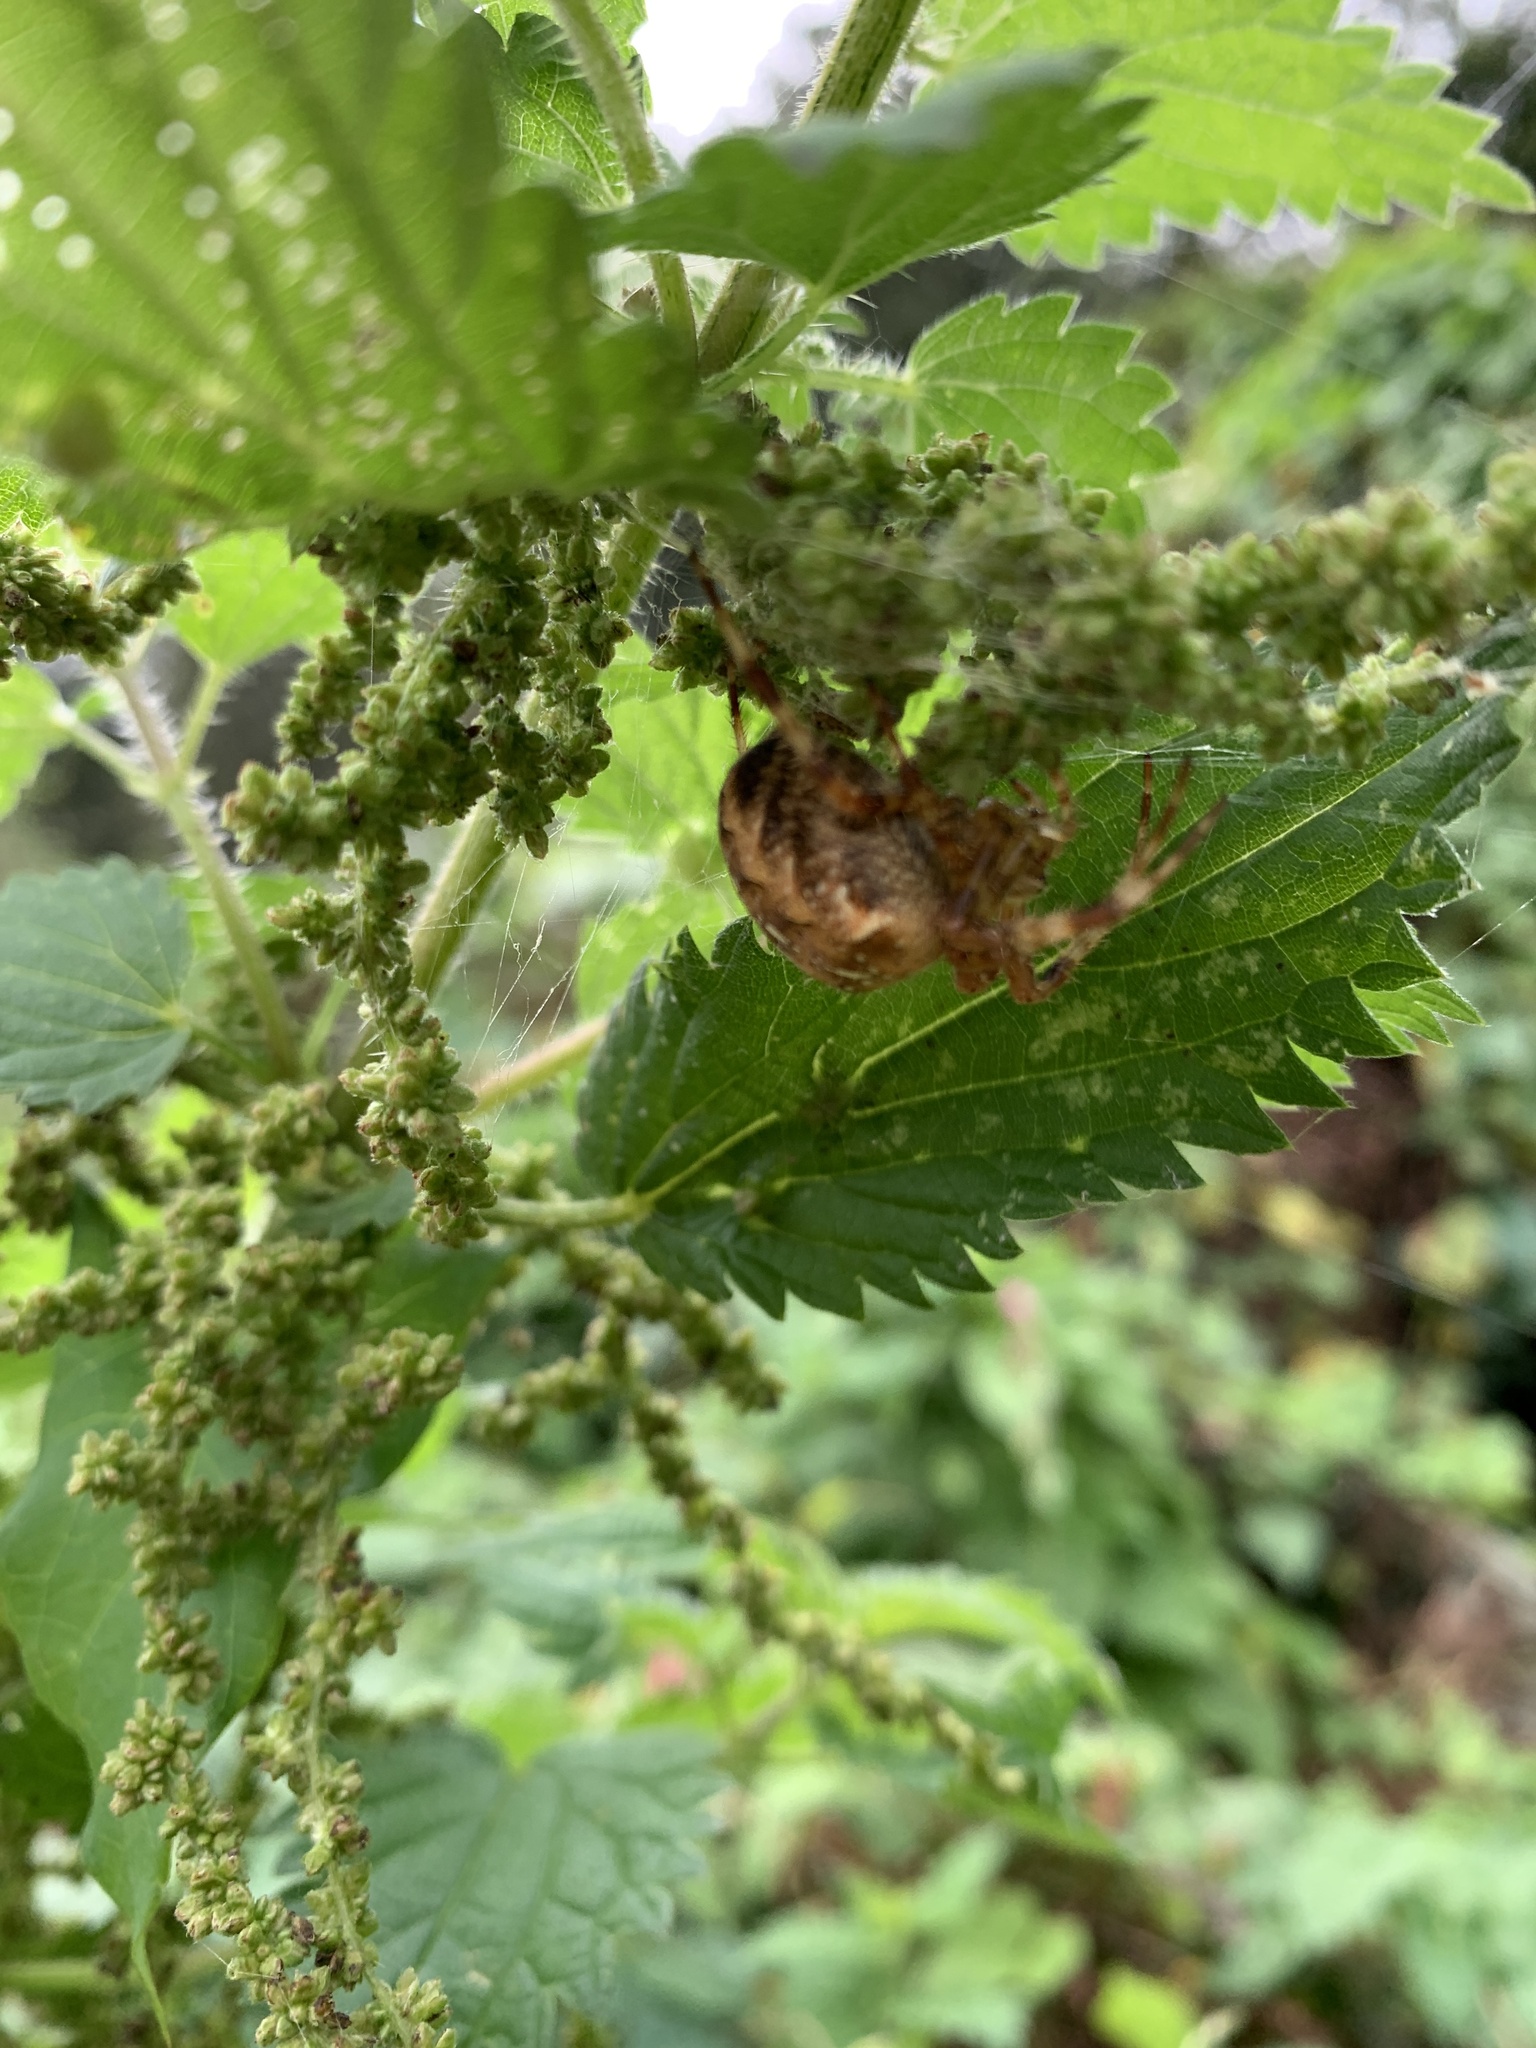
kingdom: Animalia
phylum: Arthropoda
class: Arachnida
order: Araneae
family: Araneidae
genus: Araneus
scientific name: Araneus diadematus
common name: Cross orbweaver
